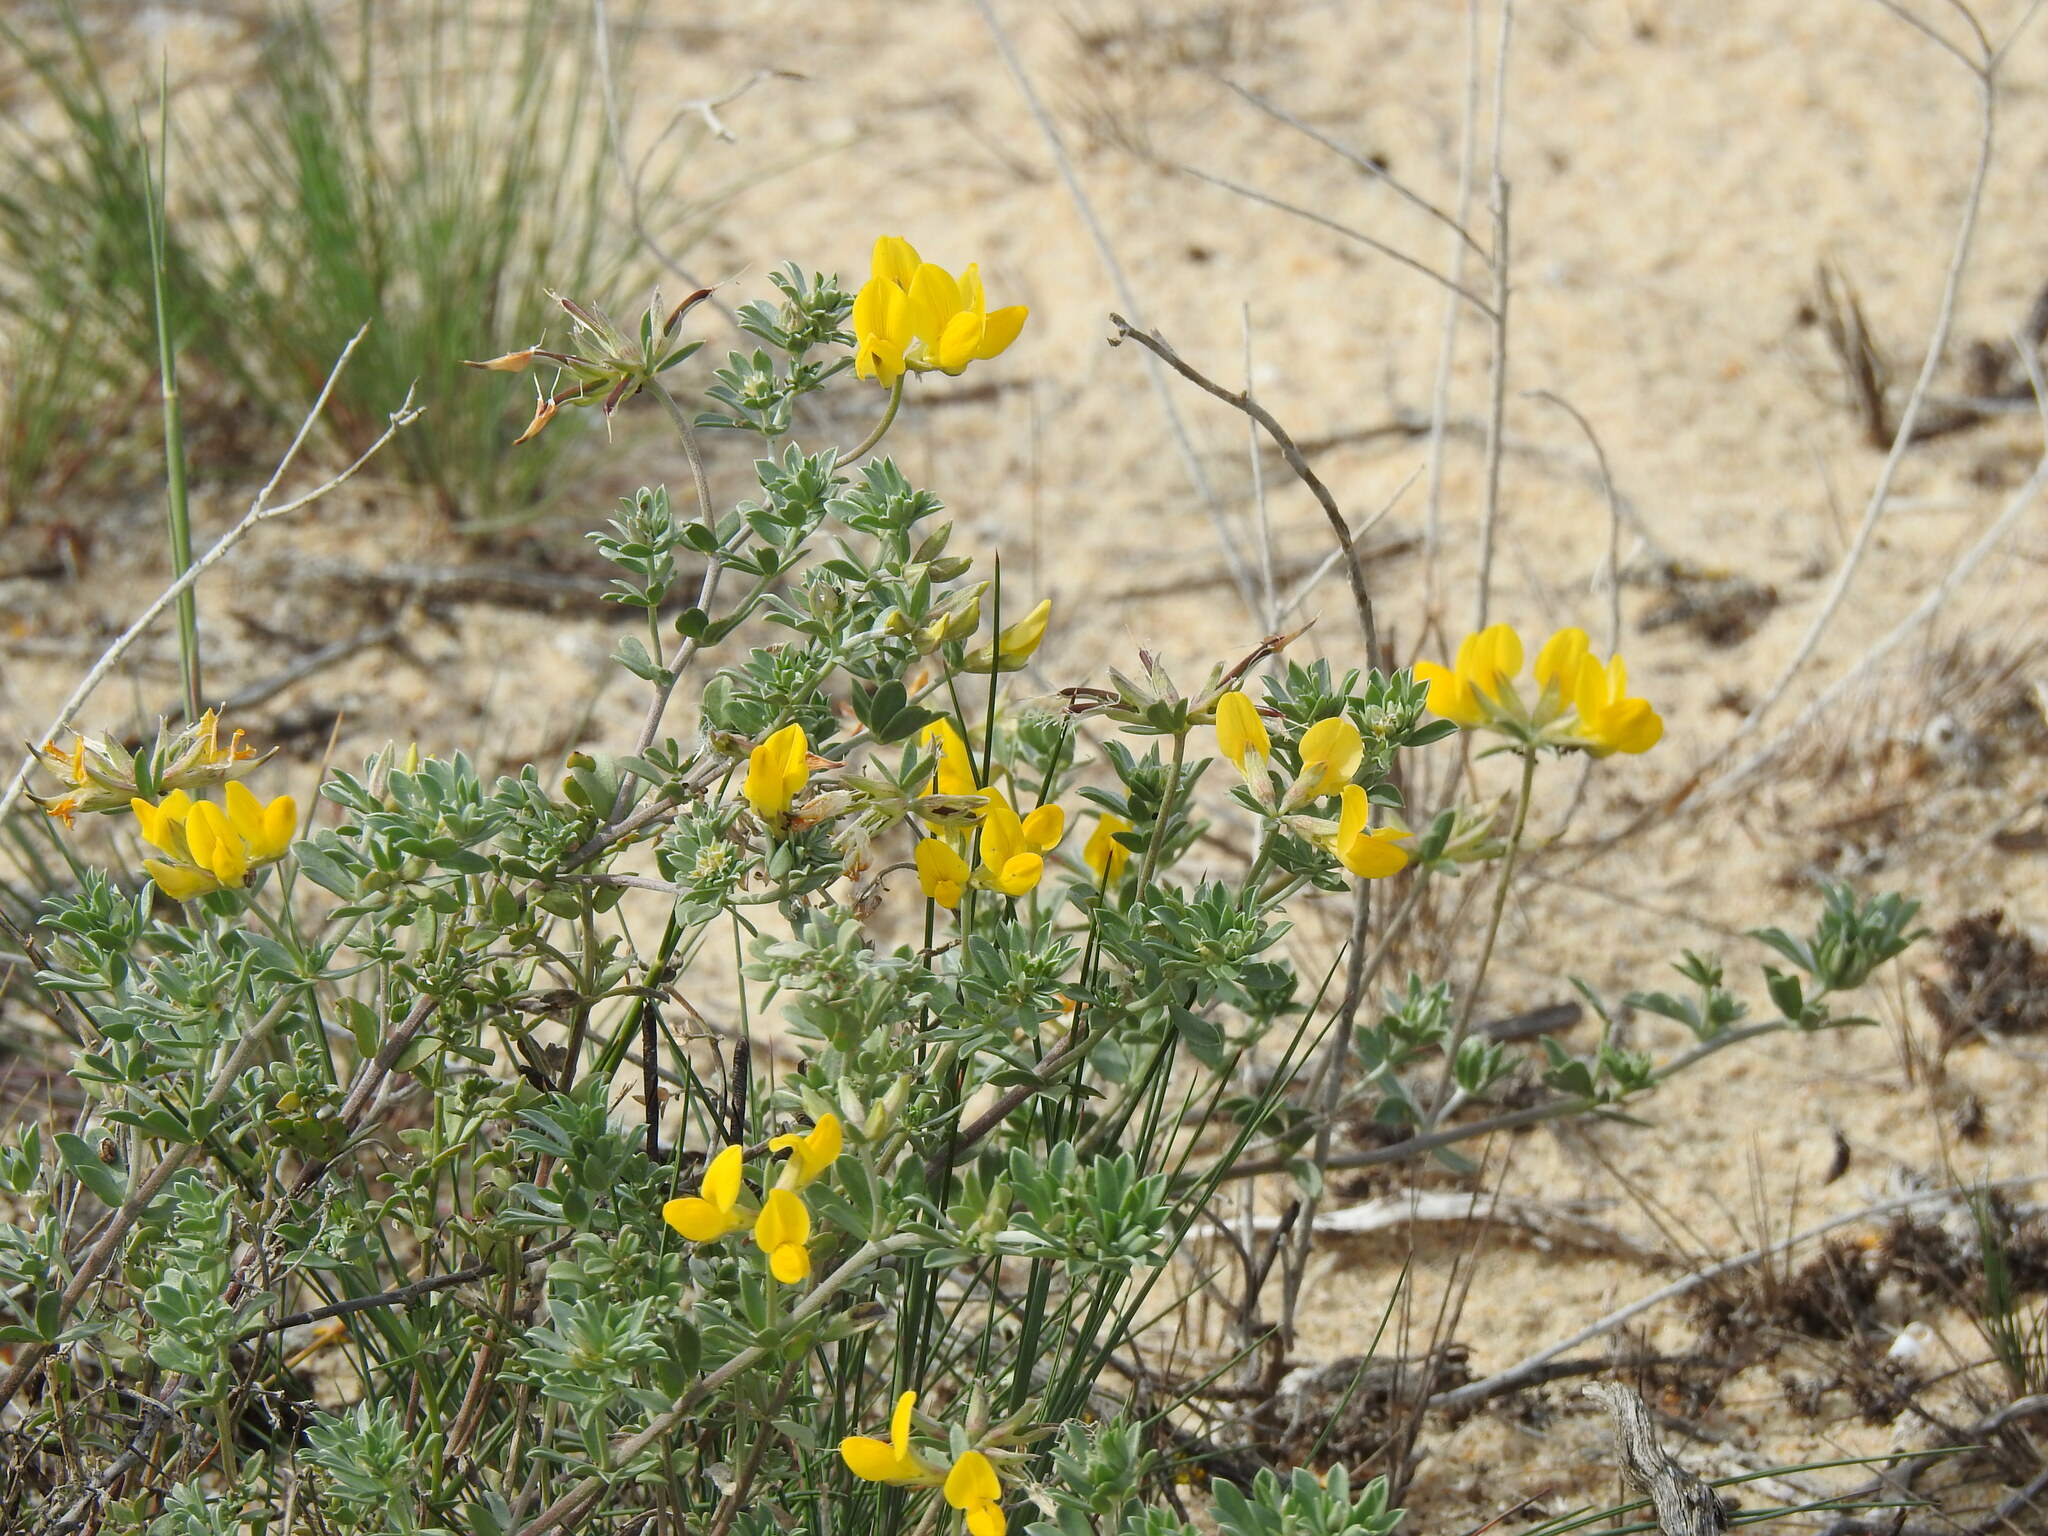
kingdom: Plantae
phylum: Tracheophyta
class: Magnoliopsida
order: Fabales
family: Fabaceae
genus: Lotus
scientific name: Lotus creticus
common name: Cretan bird's-foot trefoil
